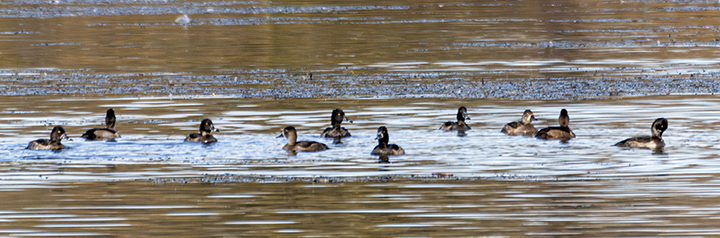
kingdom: Animalia
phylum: Chordata
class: Aves
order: Anseriformes
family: Anatidae
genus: Aythya
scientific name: Aythya collaris
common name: Ring-necked duck
